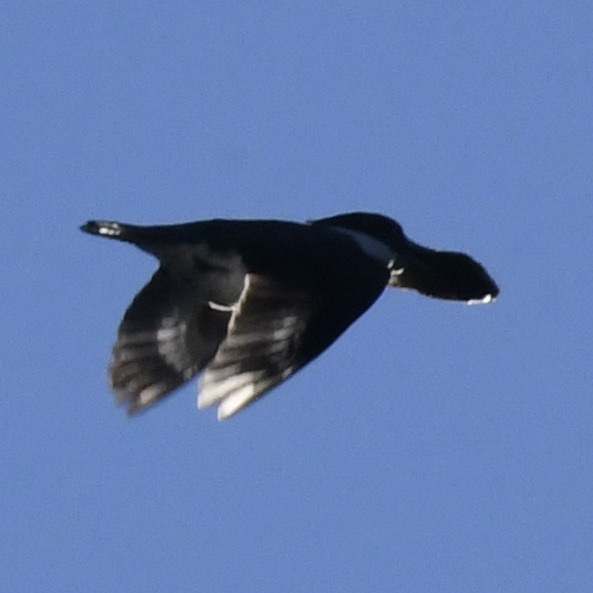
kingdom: Animalia
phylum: Chordata
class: Aves
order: Coraciiformes
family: Alcedinidae
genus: Megaceryle
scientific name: Megaceryle alcyon
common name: Belted kingfisher
